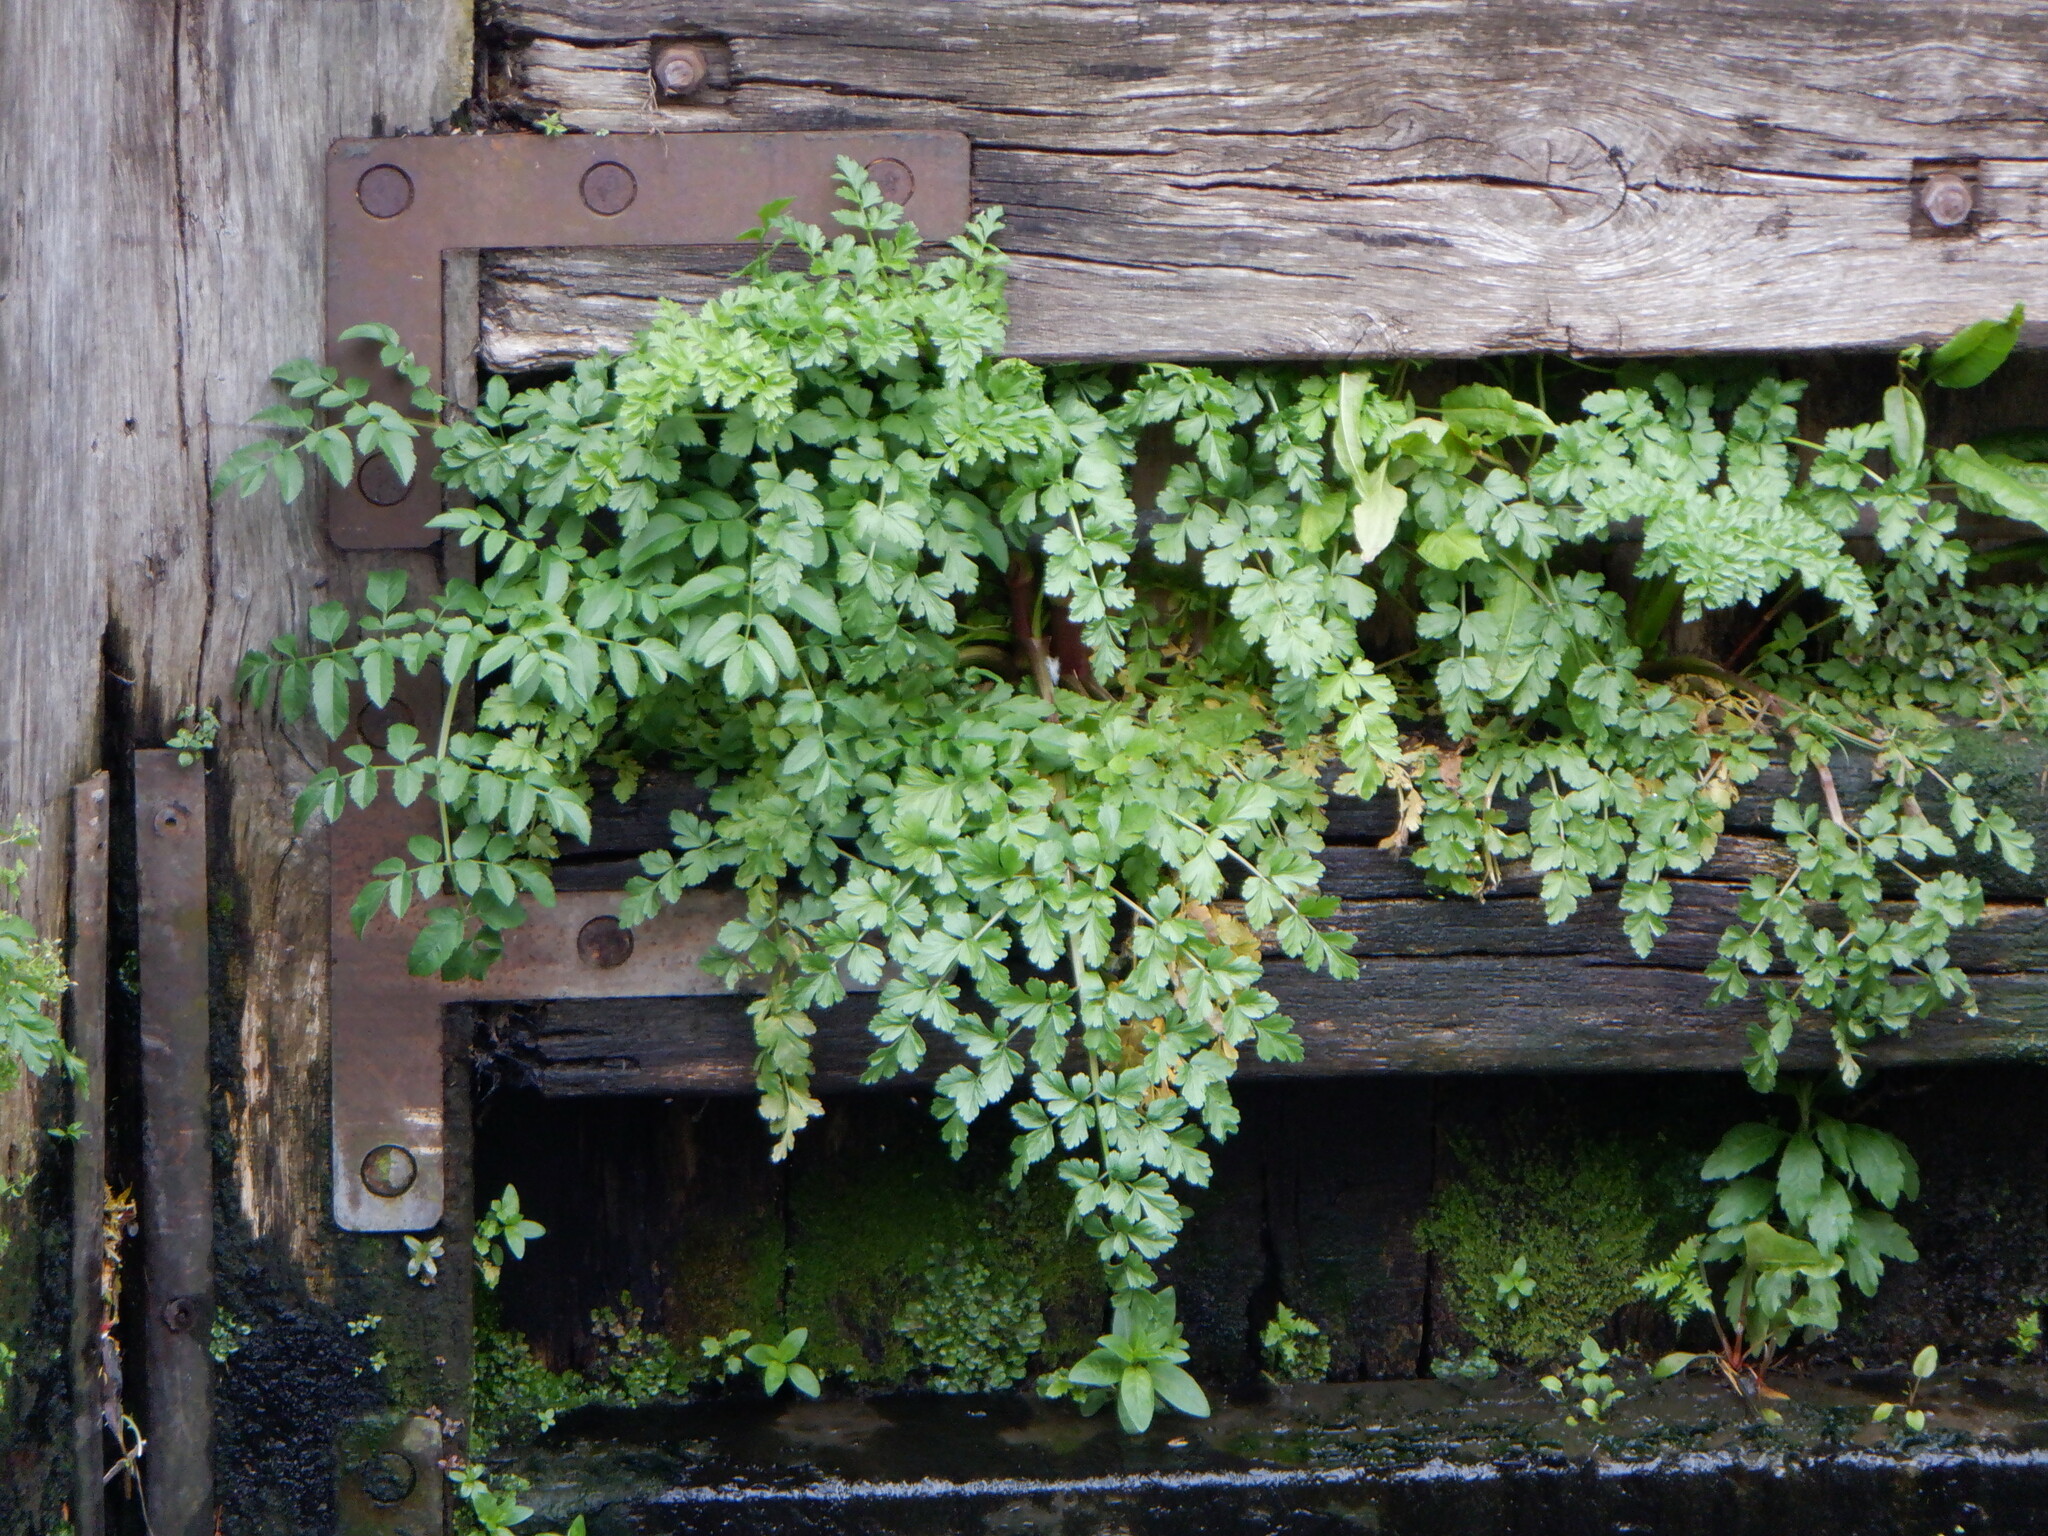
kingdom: Plantae
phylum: Tracheophyta
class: Magnoliopsida
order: Apiales
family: Apiaceae
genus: Oenanthe
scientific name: Oenanthe crocata
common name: Hemlock water-dropwort
